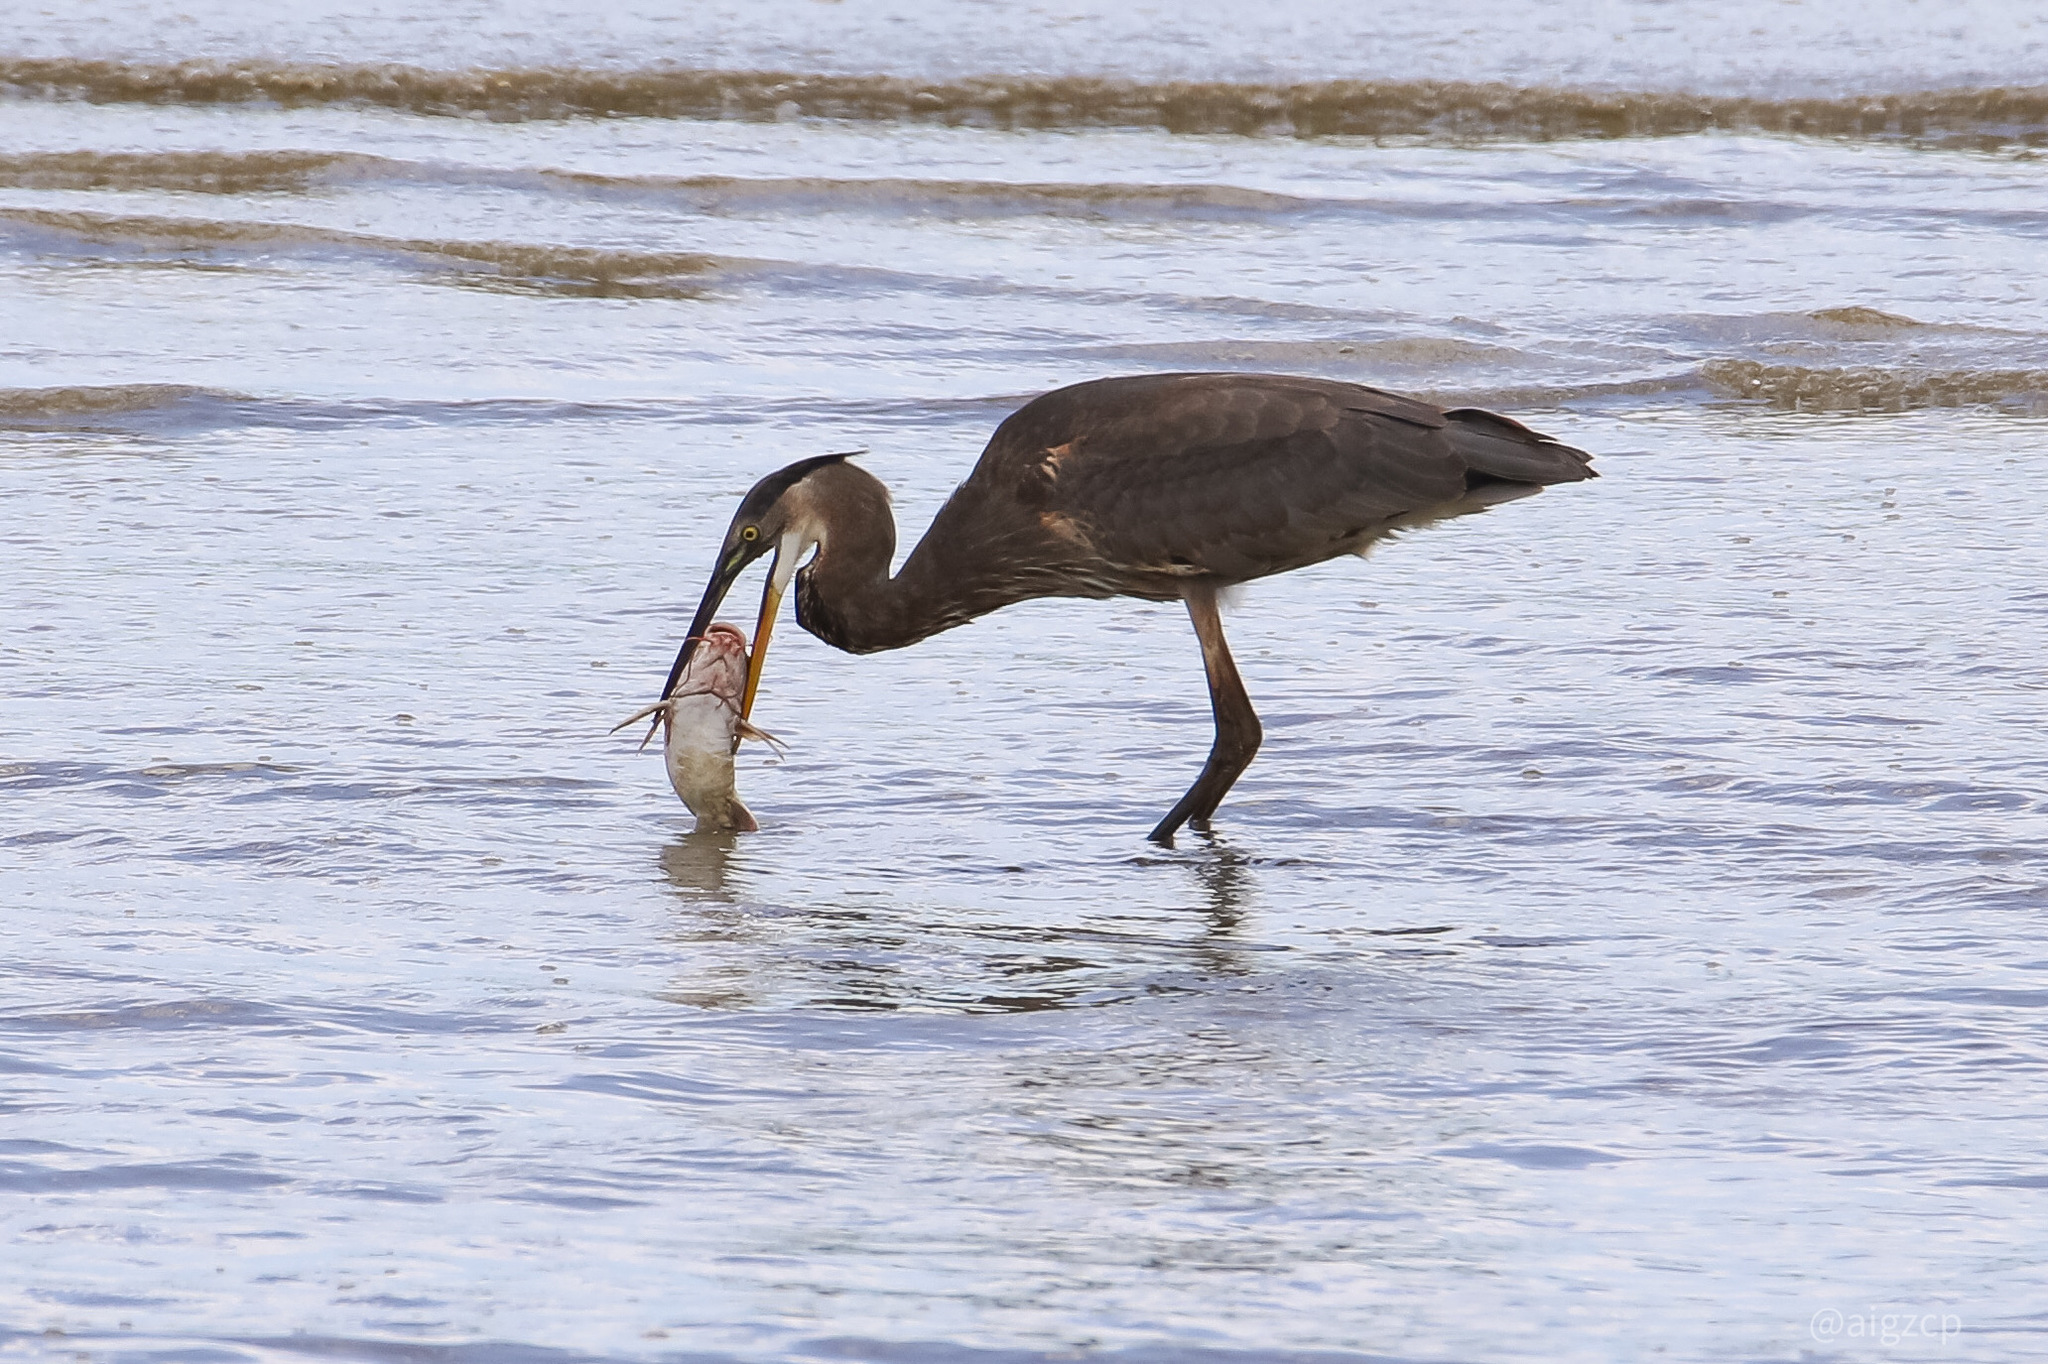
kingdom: Animalia
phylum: Chordata
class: Aves
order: Pelecaniformes
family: Ardeidae
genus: Ardea
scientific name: Ardea herodias
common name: Great blue heron
